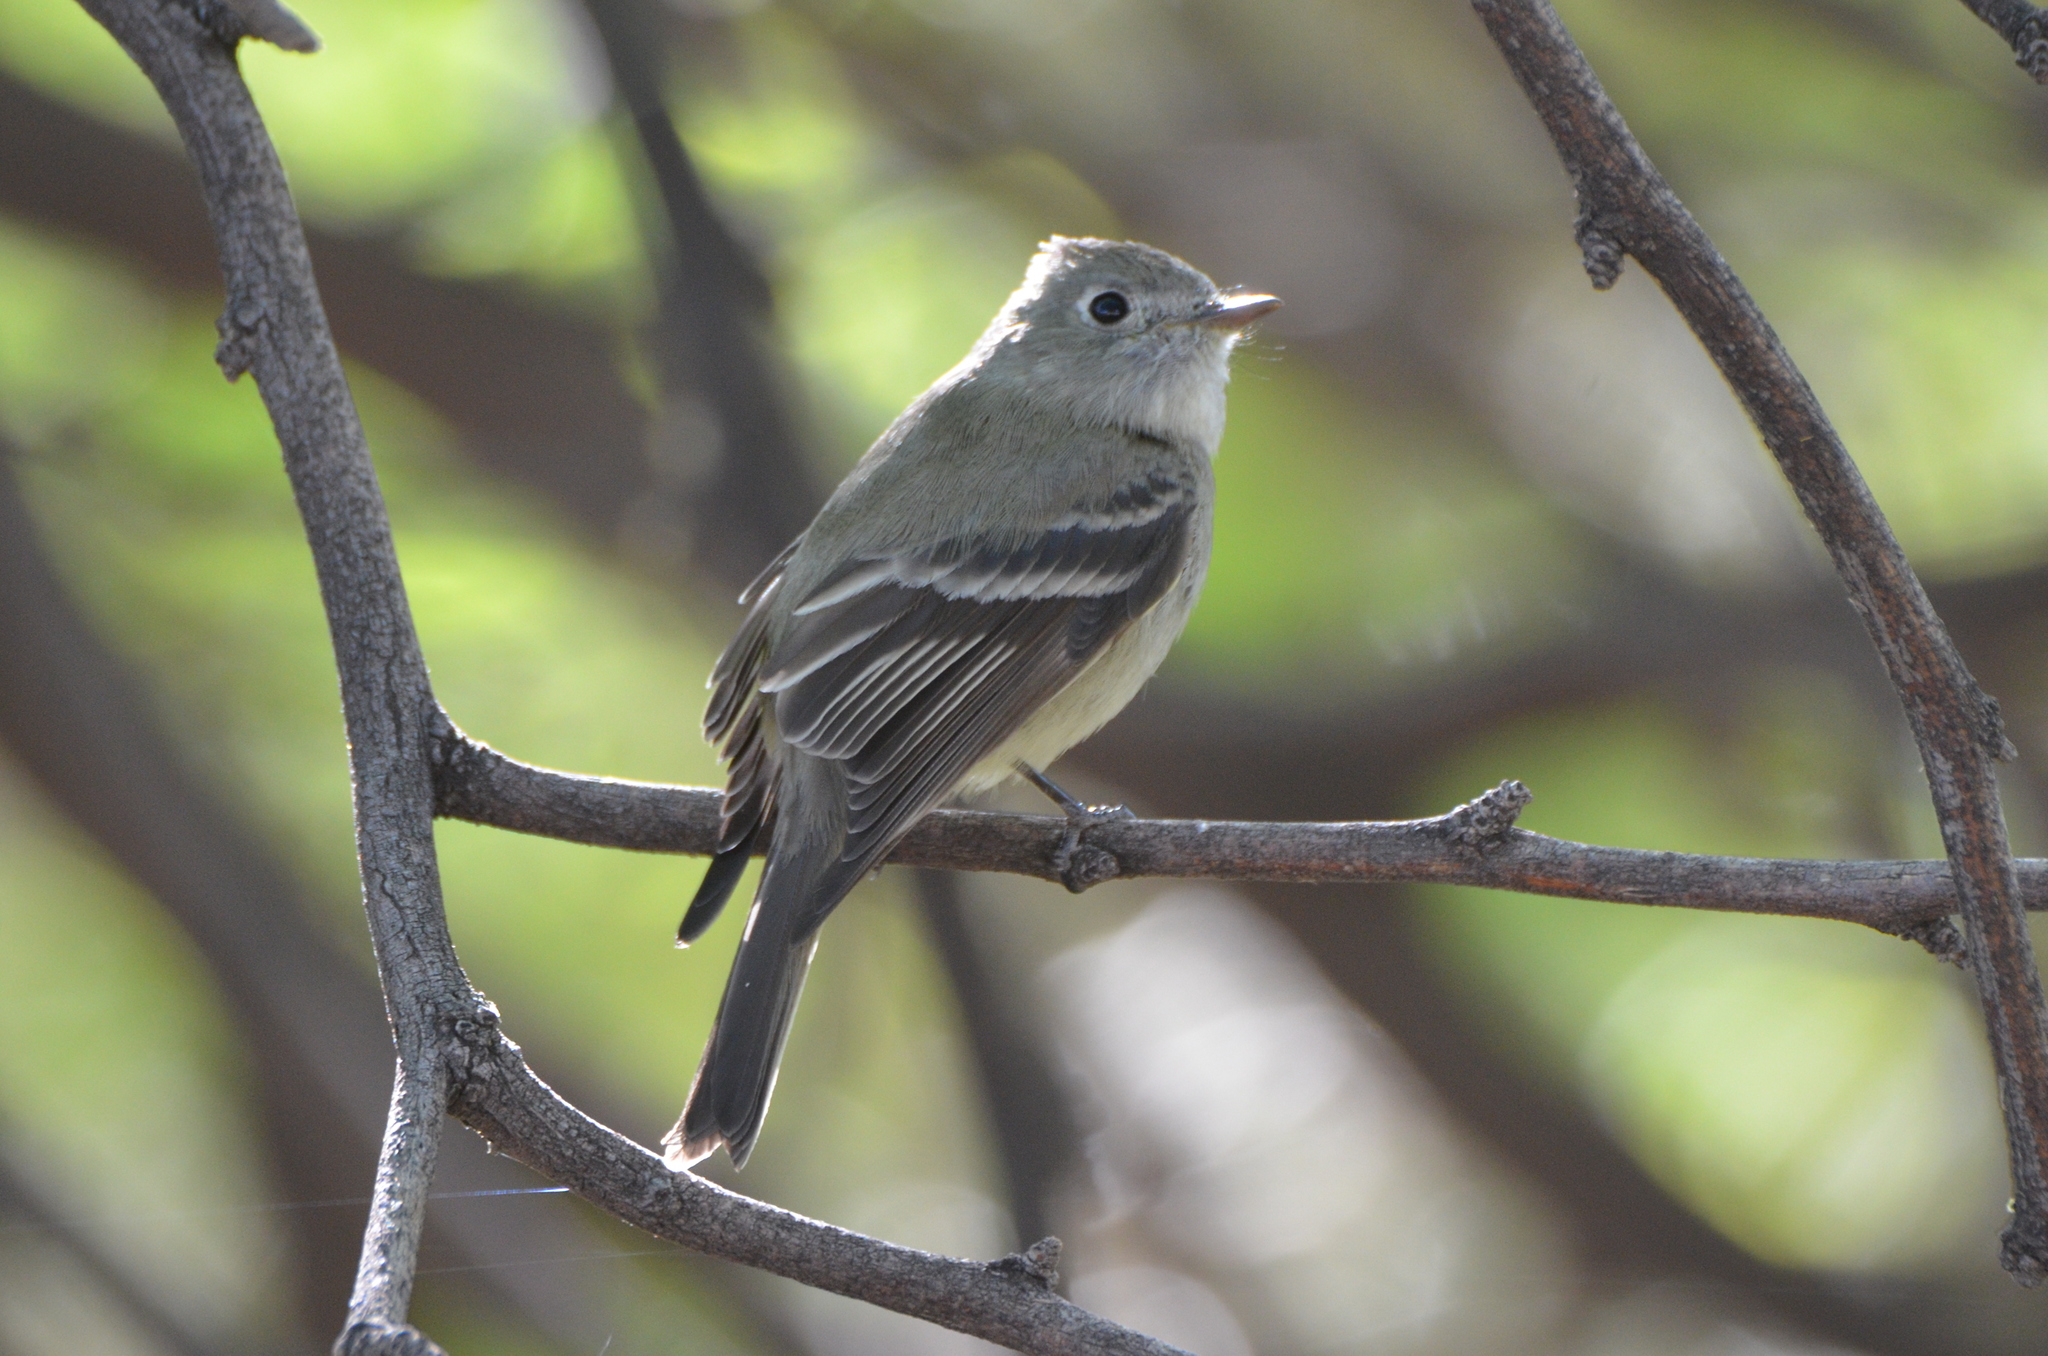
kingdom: Animalia
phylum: Chordata
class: Aves
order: Passeriformes
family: Tyrannidae
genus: Empidonax
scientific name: Empidonax hammondii
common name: Hammond's flycatcher
